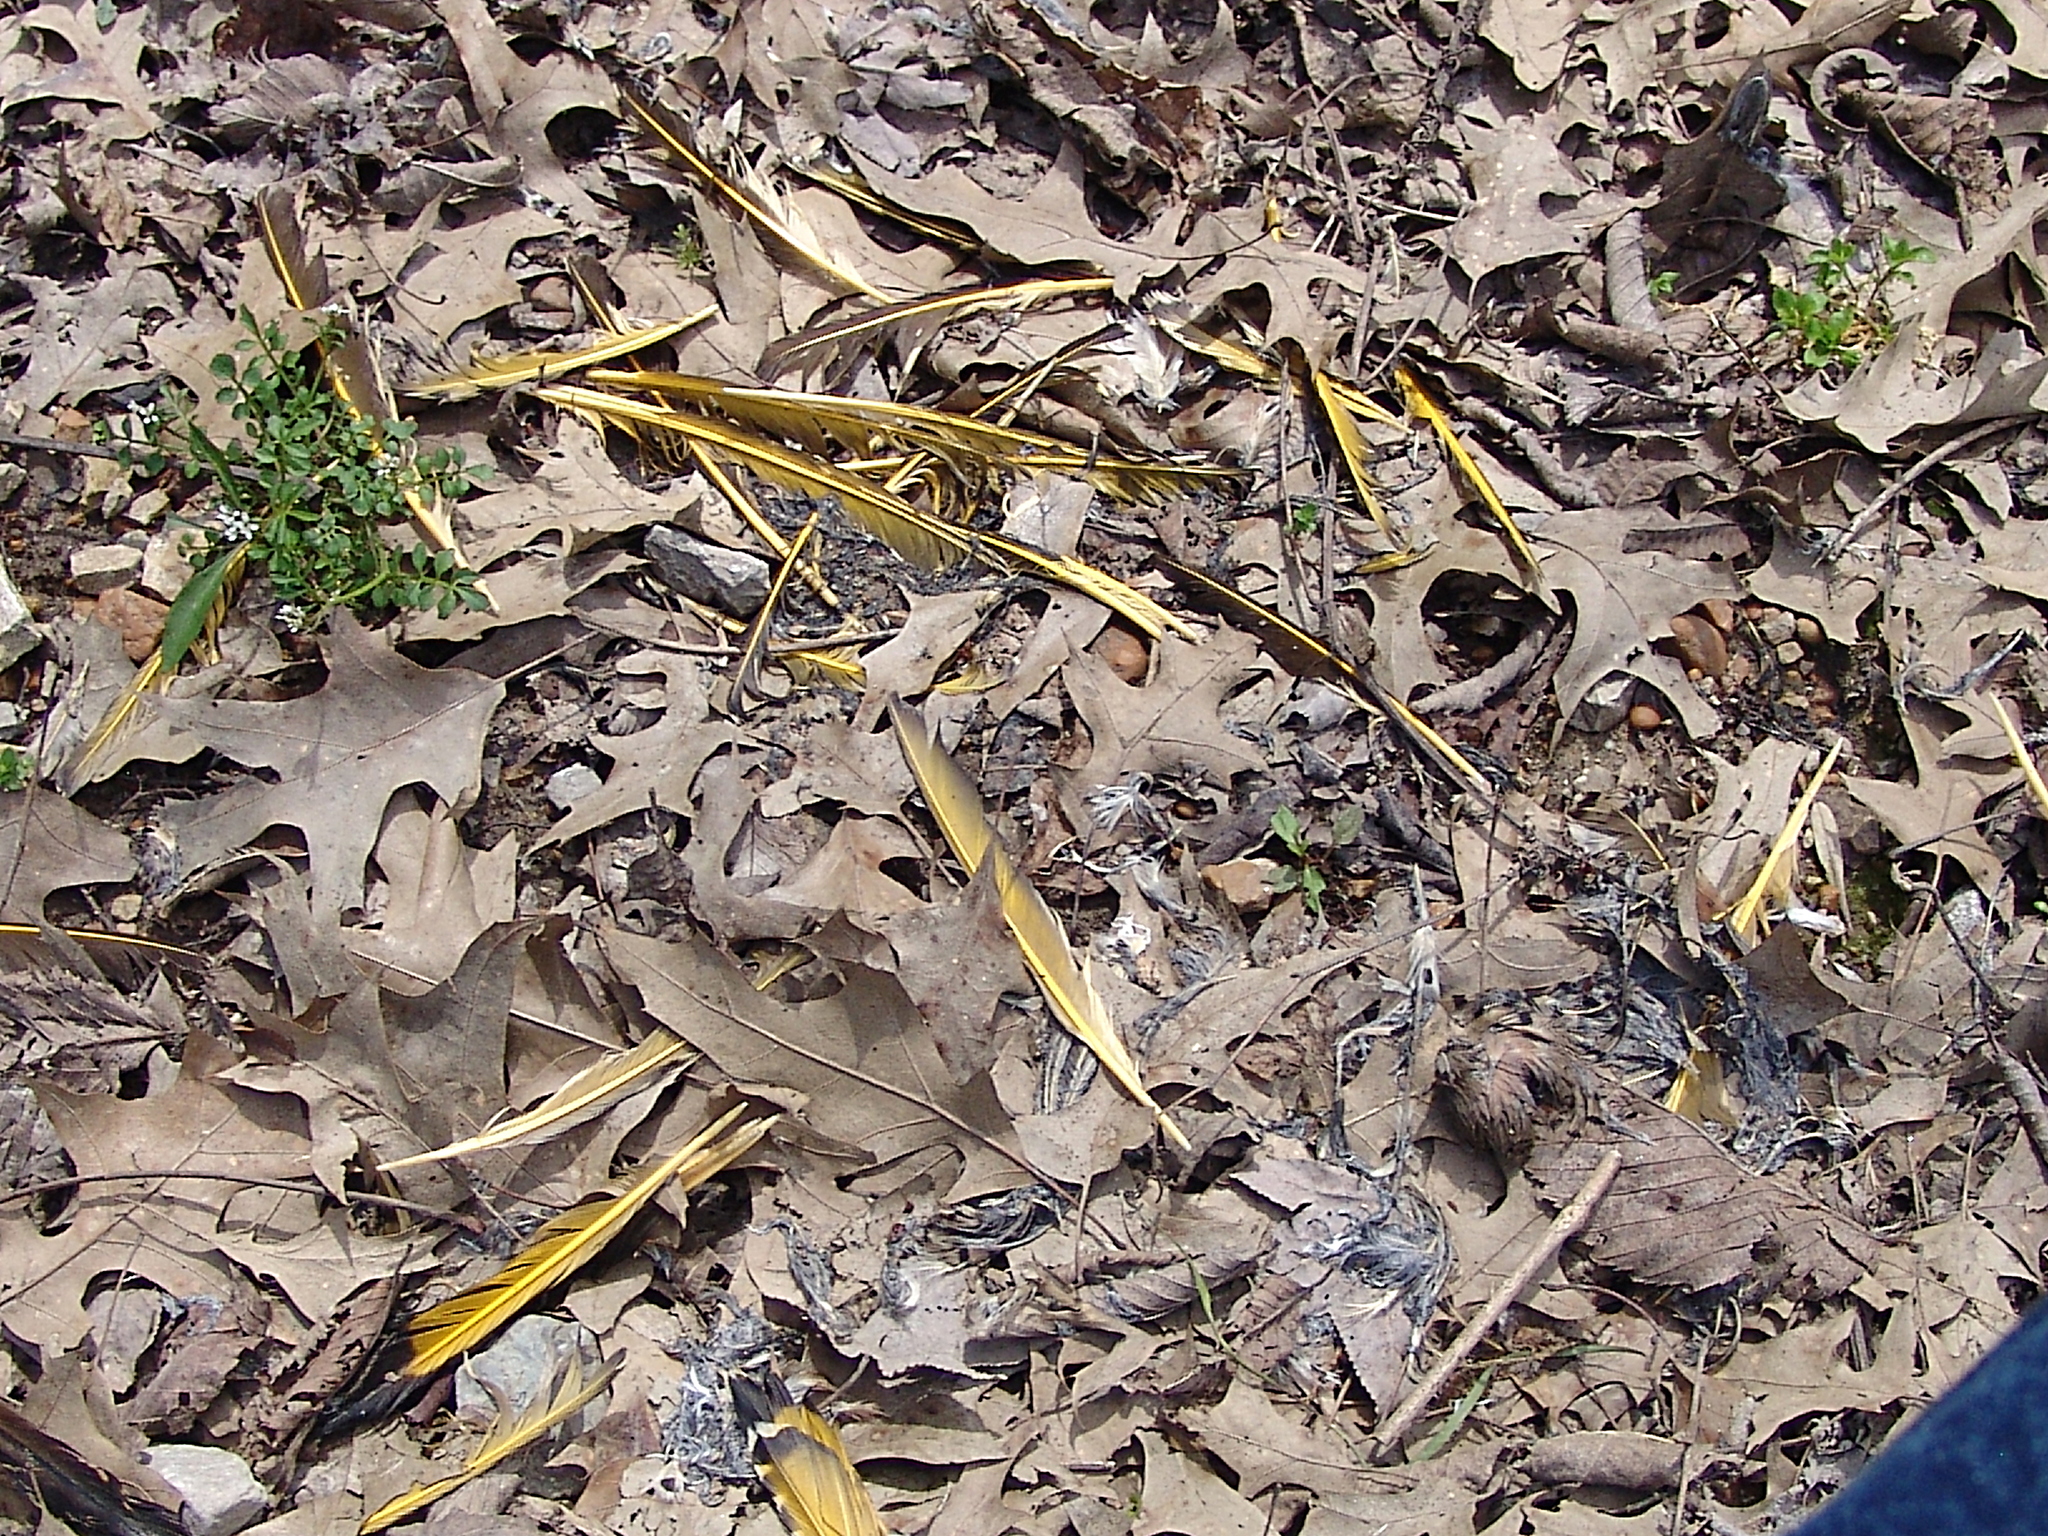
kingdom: Animalia
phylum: Chordata
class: Aves
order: Piciformes
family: Picidae
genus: Colaptes
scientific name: Colaptes auratus
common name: Northern flicker
